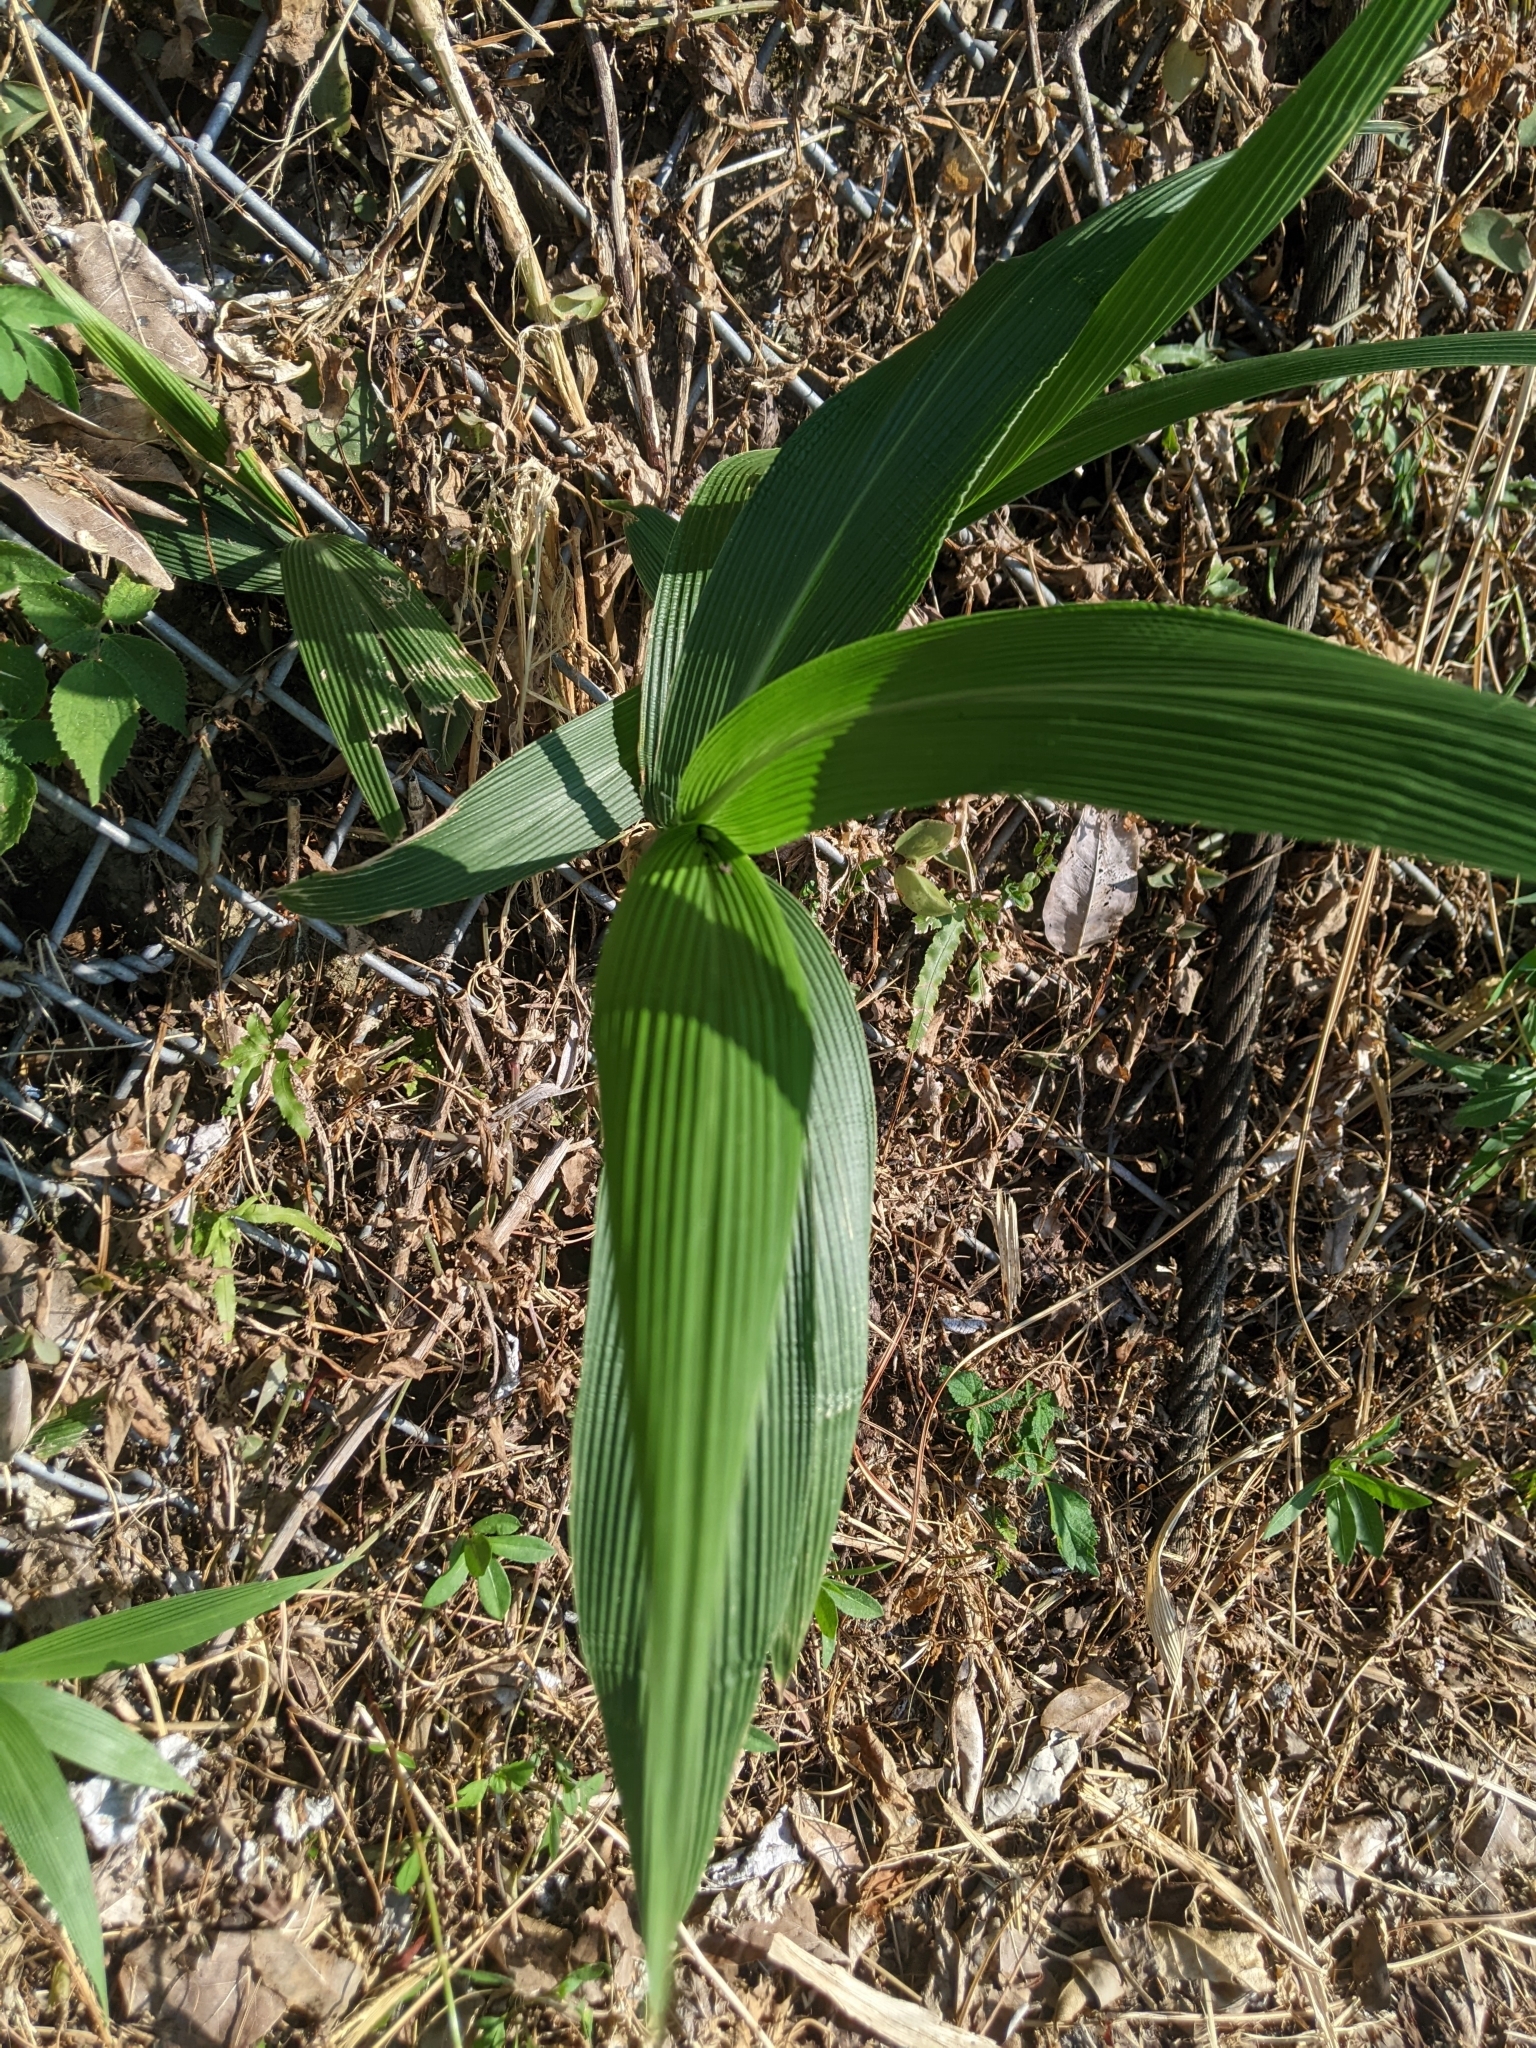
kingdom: Plantae
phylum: Tracheophyta
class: Liliopsida
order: Poales
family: Poaceae
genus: Setaria
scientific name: Setaria palmifolia
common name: Broadleaved bristlegrass
